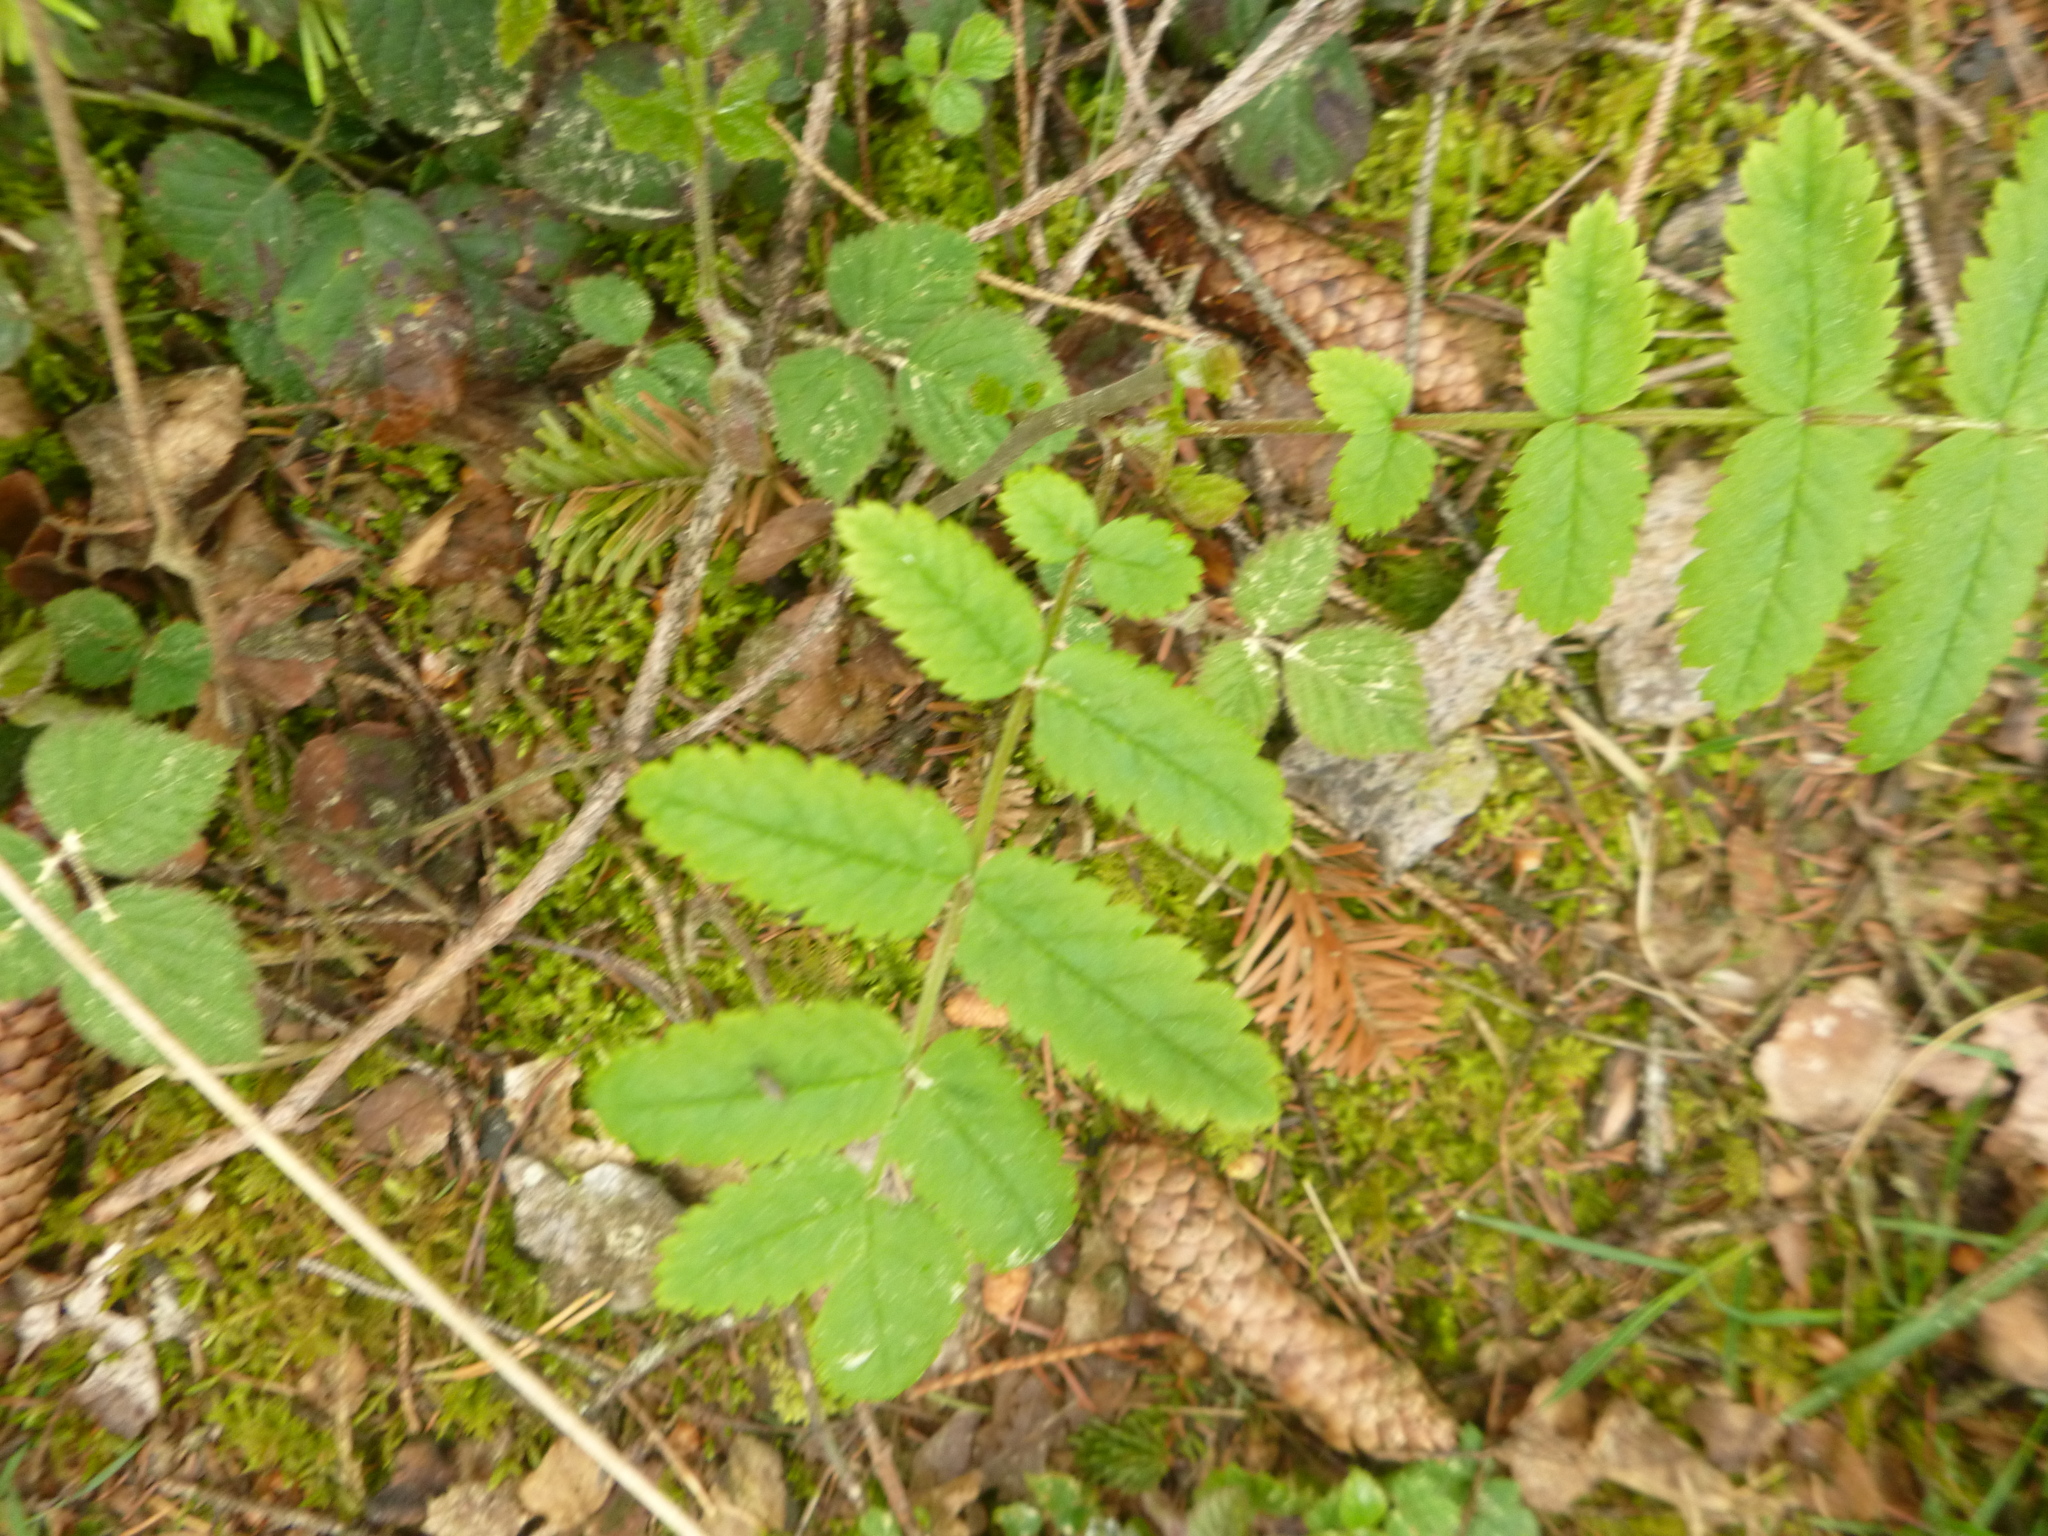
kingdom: Plantae
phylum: Tracheophyta
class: Magnoliopsida
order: Rosales
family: Rosaceae
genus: Sorbus
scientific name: Sorbus aucuparia
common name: Rowan
